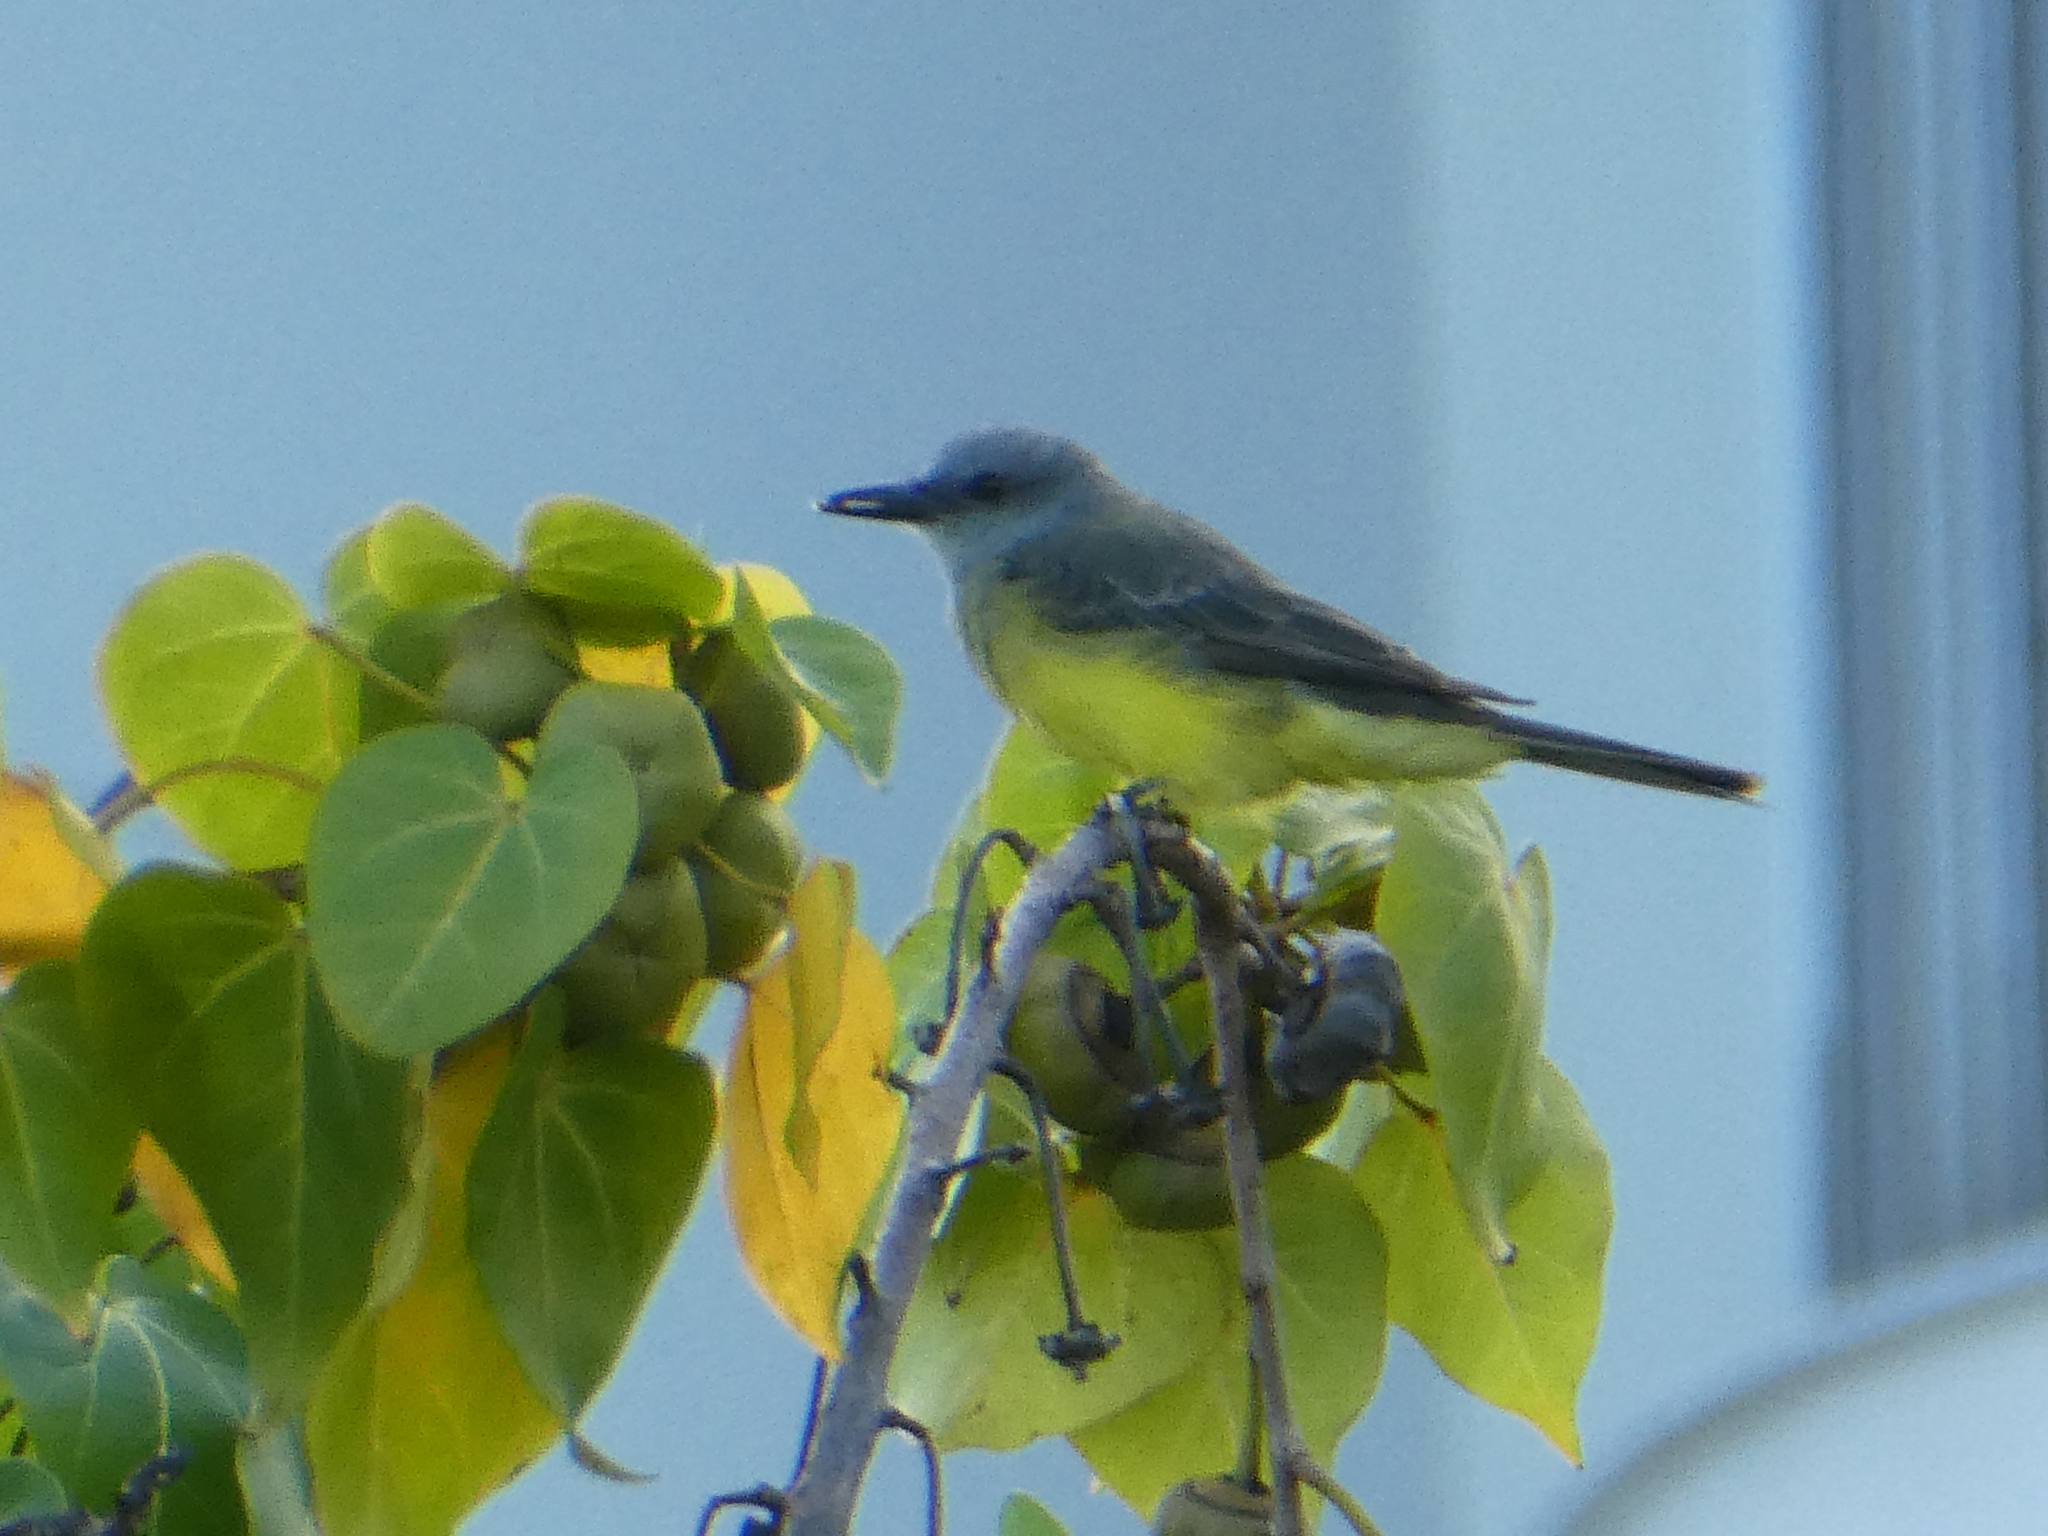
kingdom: Animalia
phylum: Chordata
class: Aves
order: Passeriformes
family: Tyrannidae
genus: Tyrannus
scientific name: Tyrannus melancholicus
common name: Tropical kingbird
